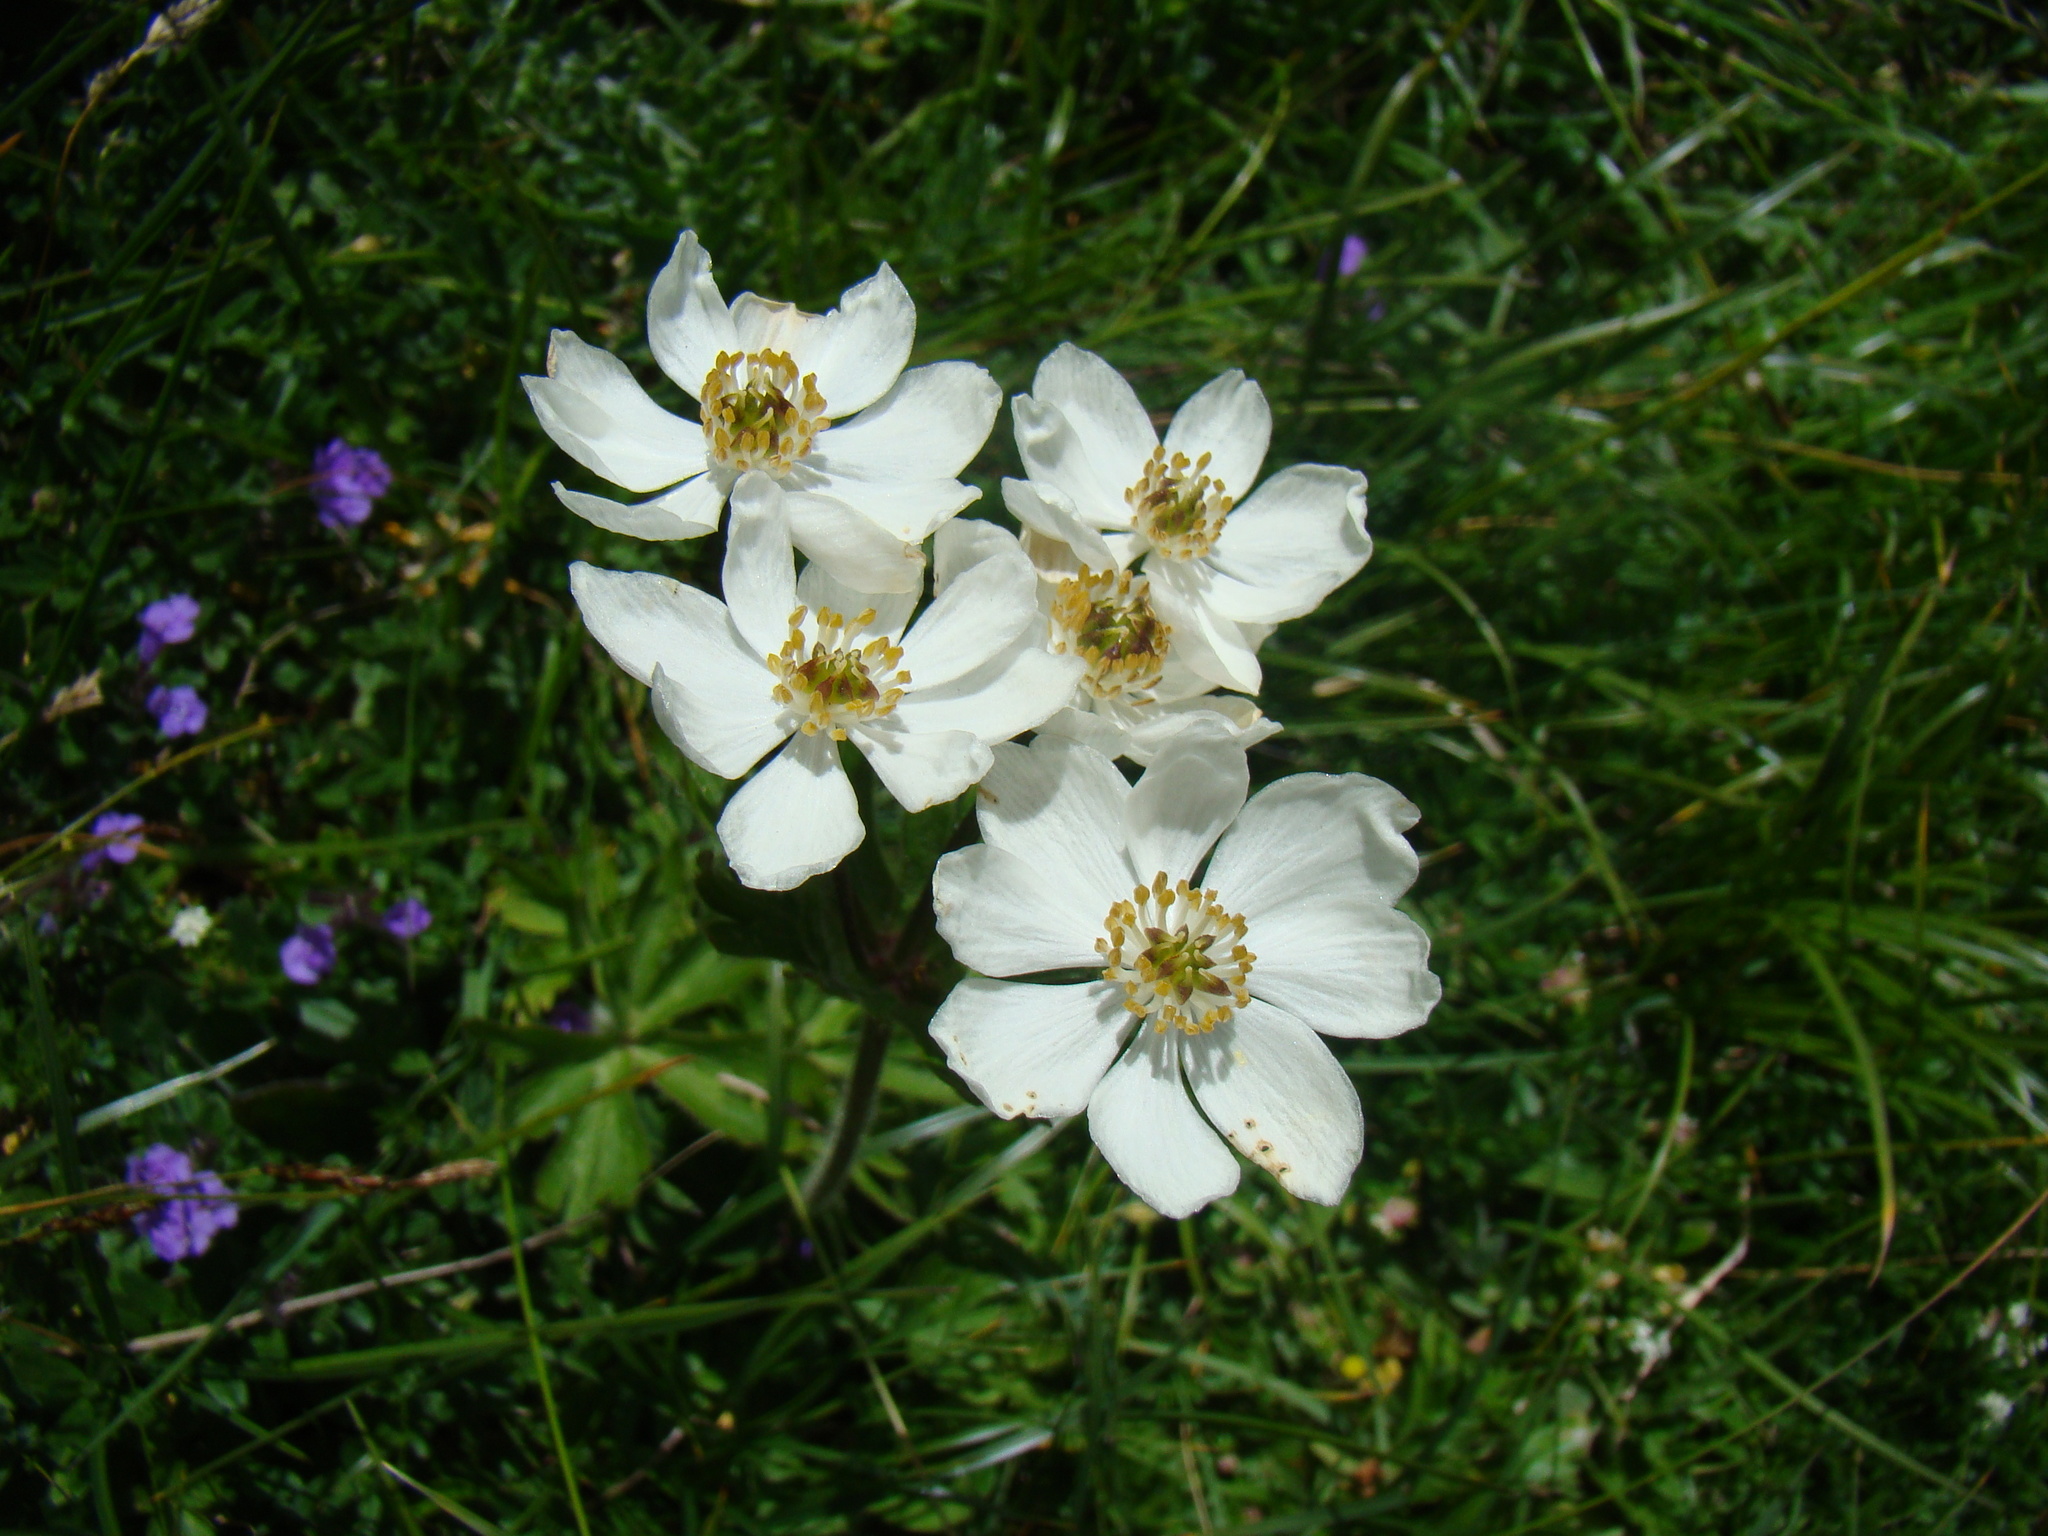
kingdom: Plantae
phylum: Tracheophyta
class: Magnoliopsida
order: Ranunculales
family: Ranunculaceae
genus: Anemonastrum
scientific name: Anemonastrum narcissiflorum
